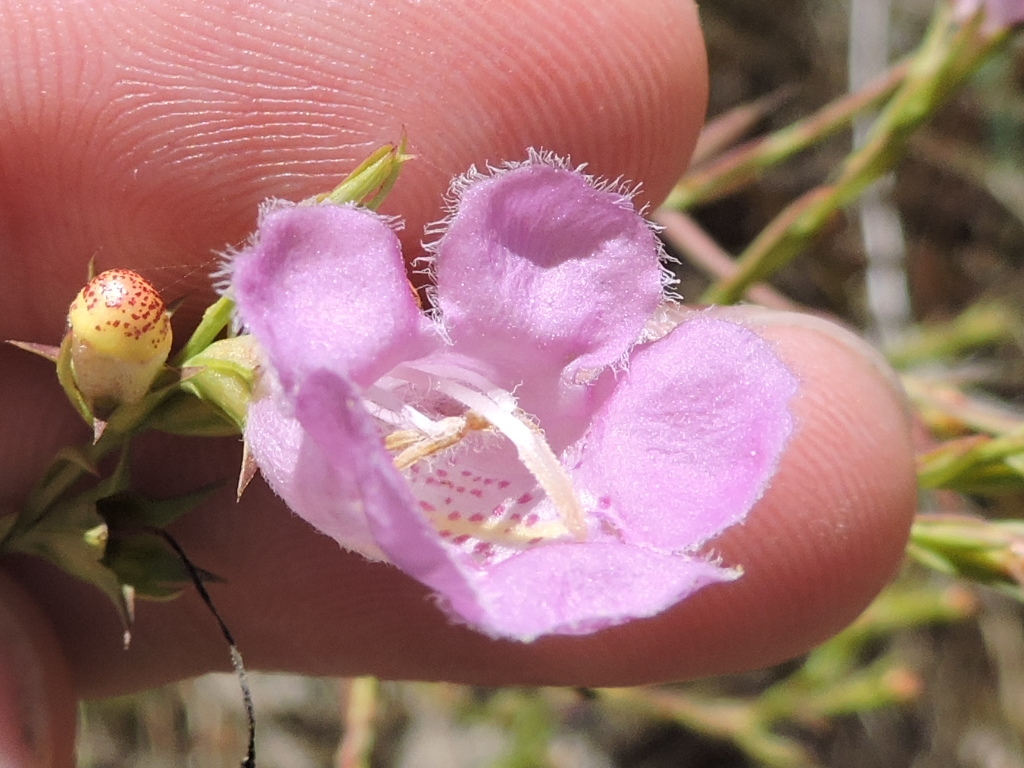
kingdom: Plantae
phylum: Tracheophyta
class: Magnoliopsida
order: Lamiales
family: Orobanchaceae
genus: Agalinis
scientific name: Agalinis heterophylla
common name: Prairie agalinis
